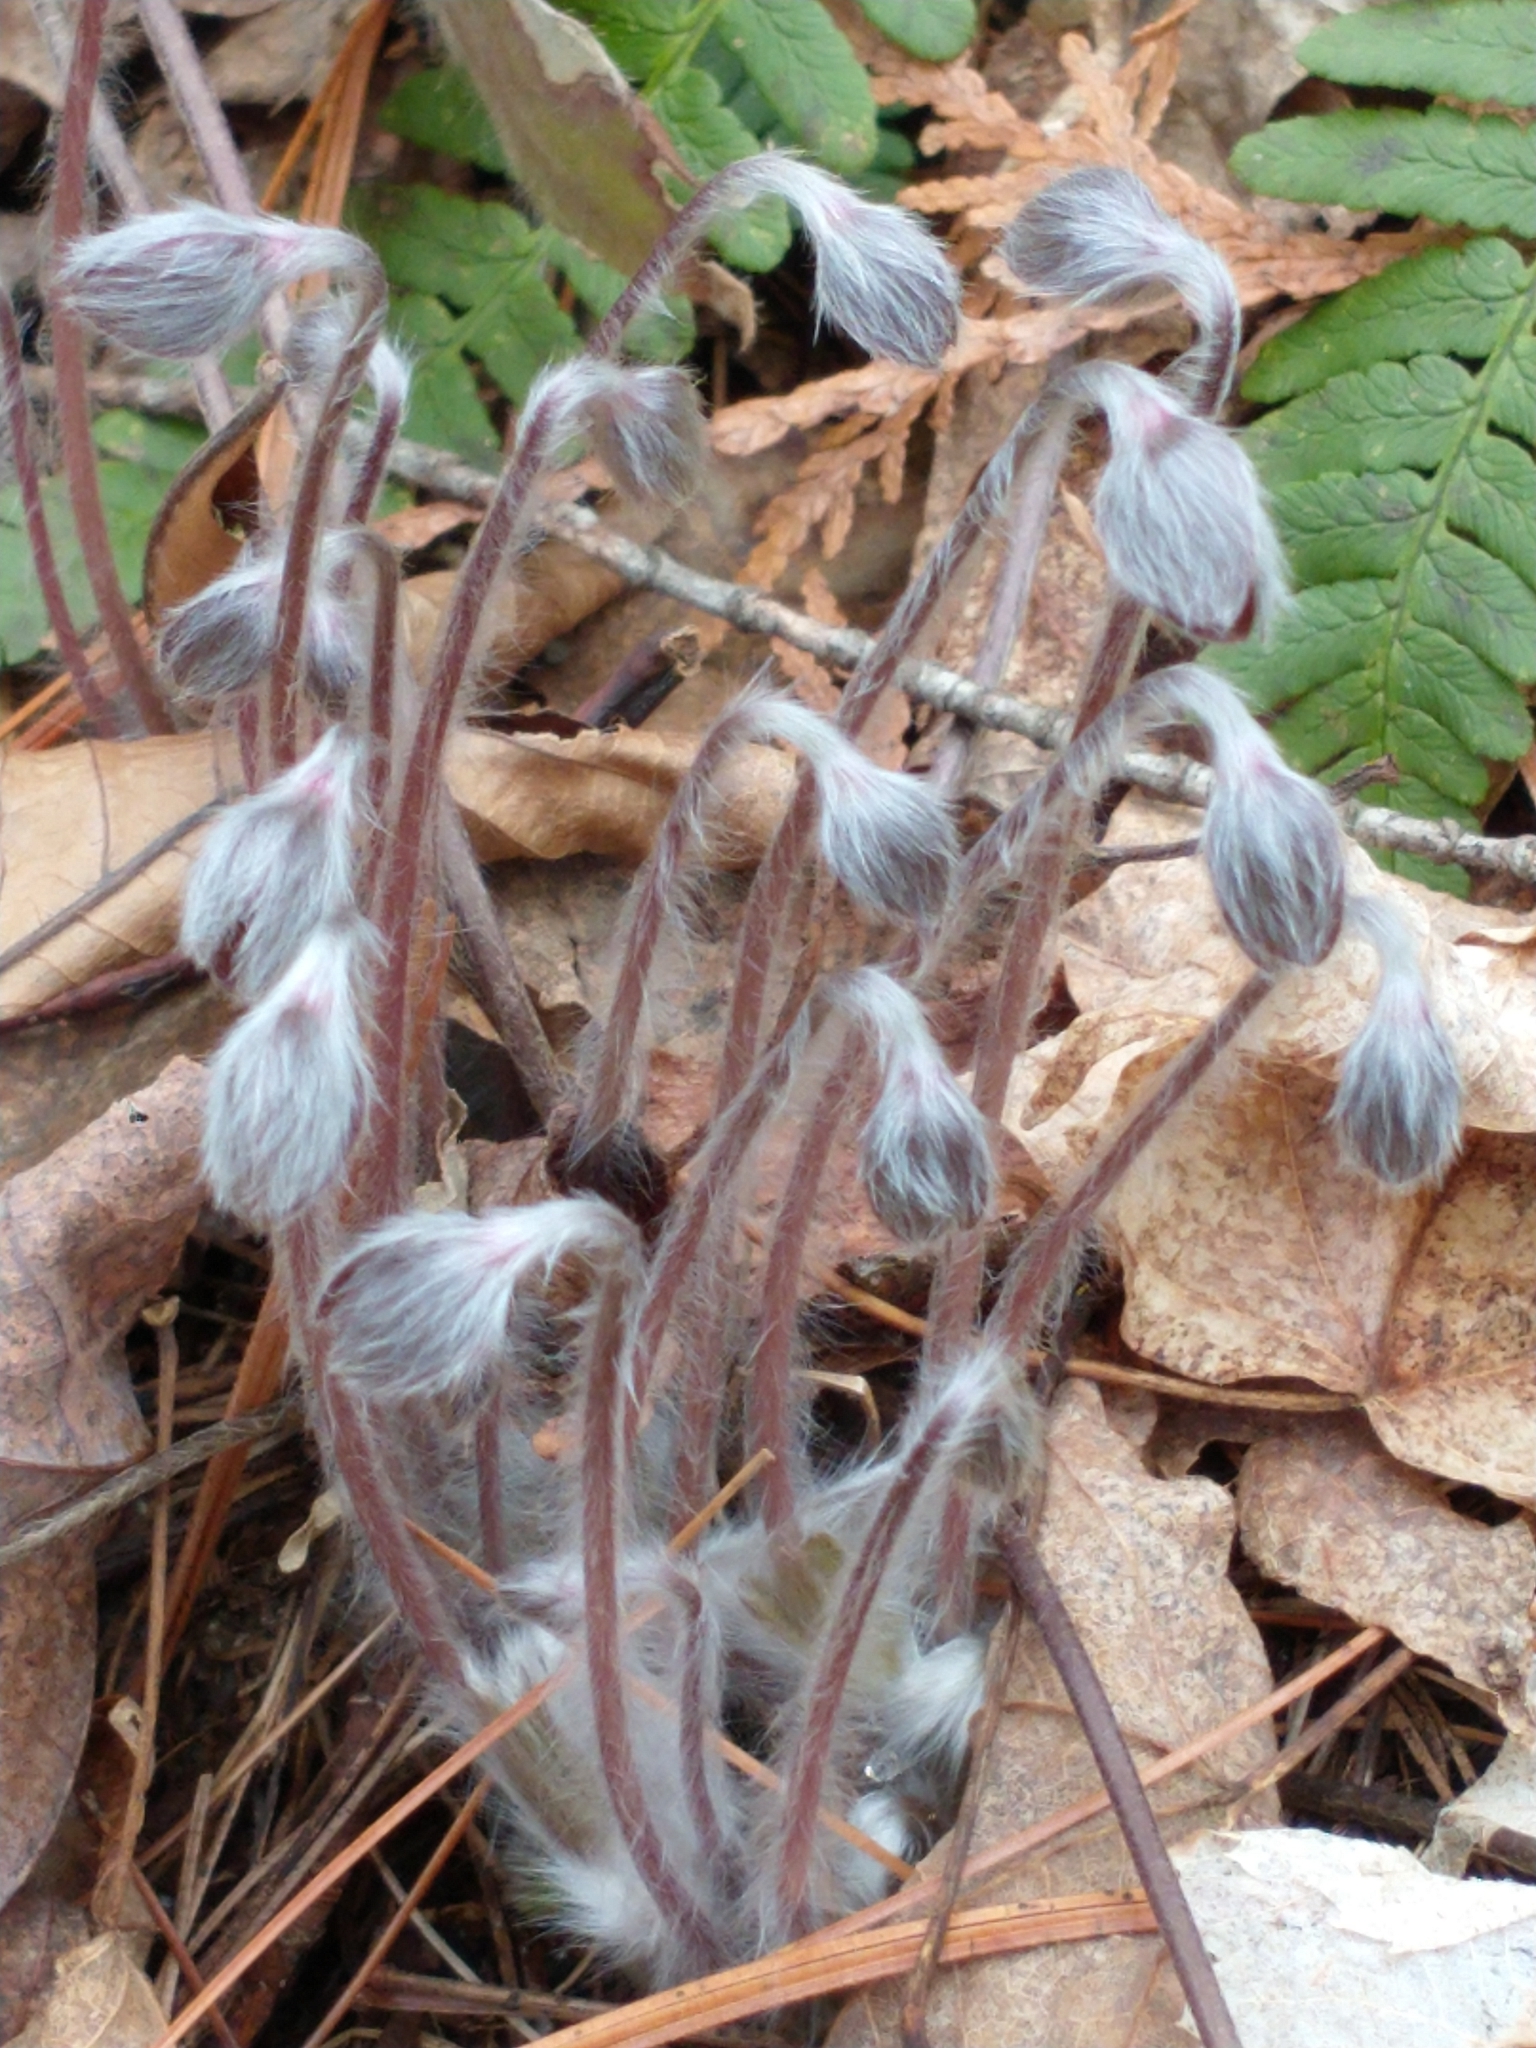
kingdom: Plantae
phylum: Tracheophyta
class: Magnoliopsida
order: Ranunculales
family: Ranunculaceae
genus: Hepatica
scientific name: Hepatica americana
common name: American hepatica
